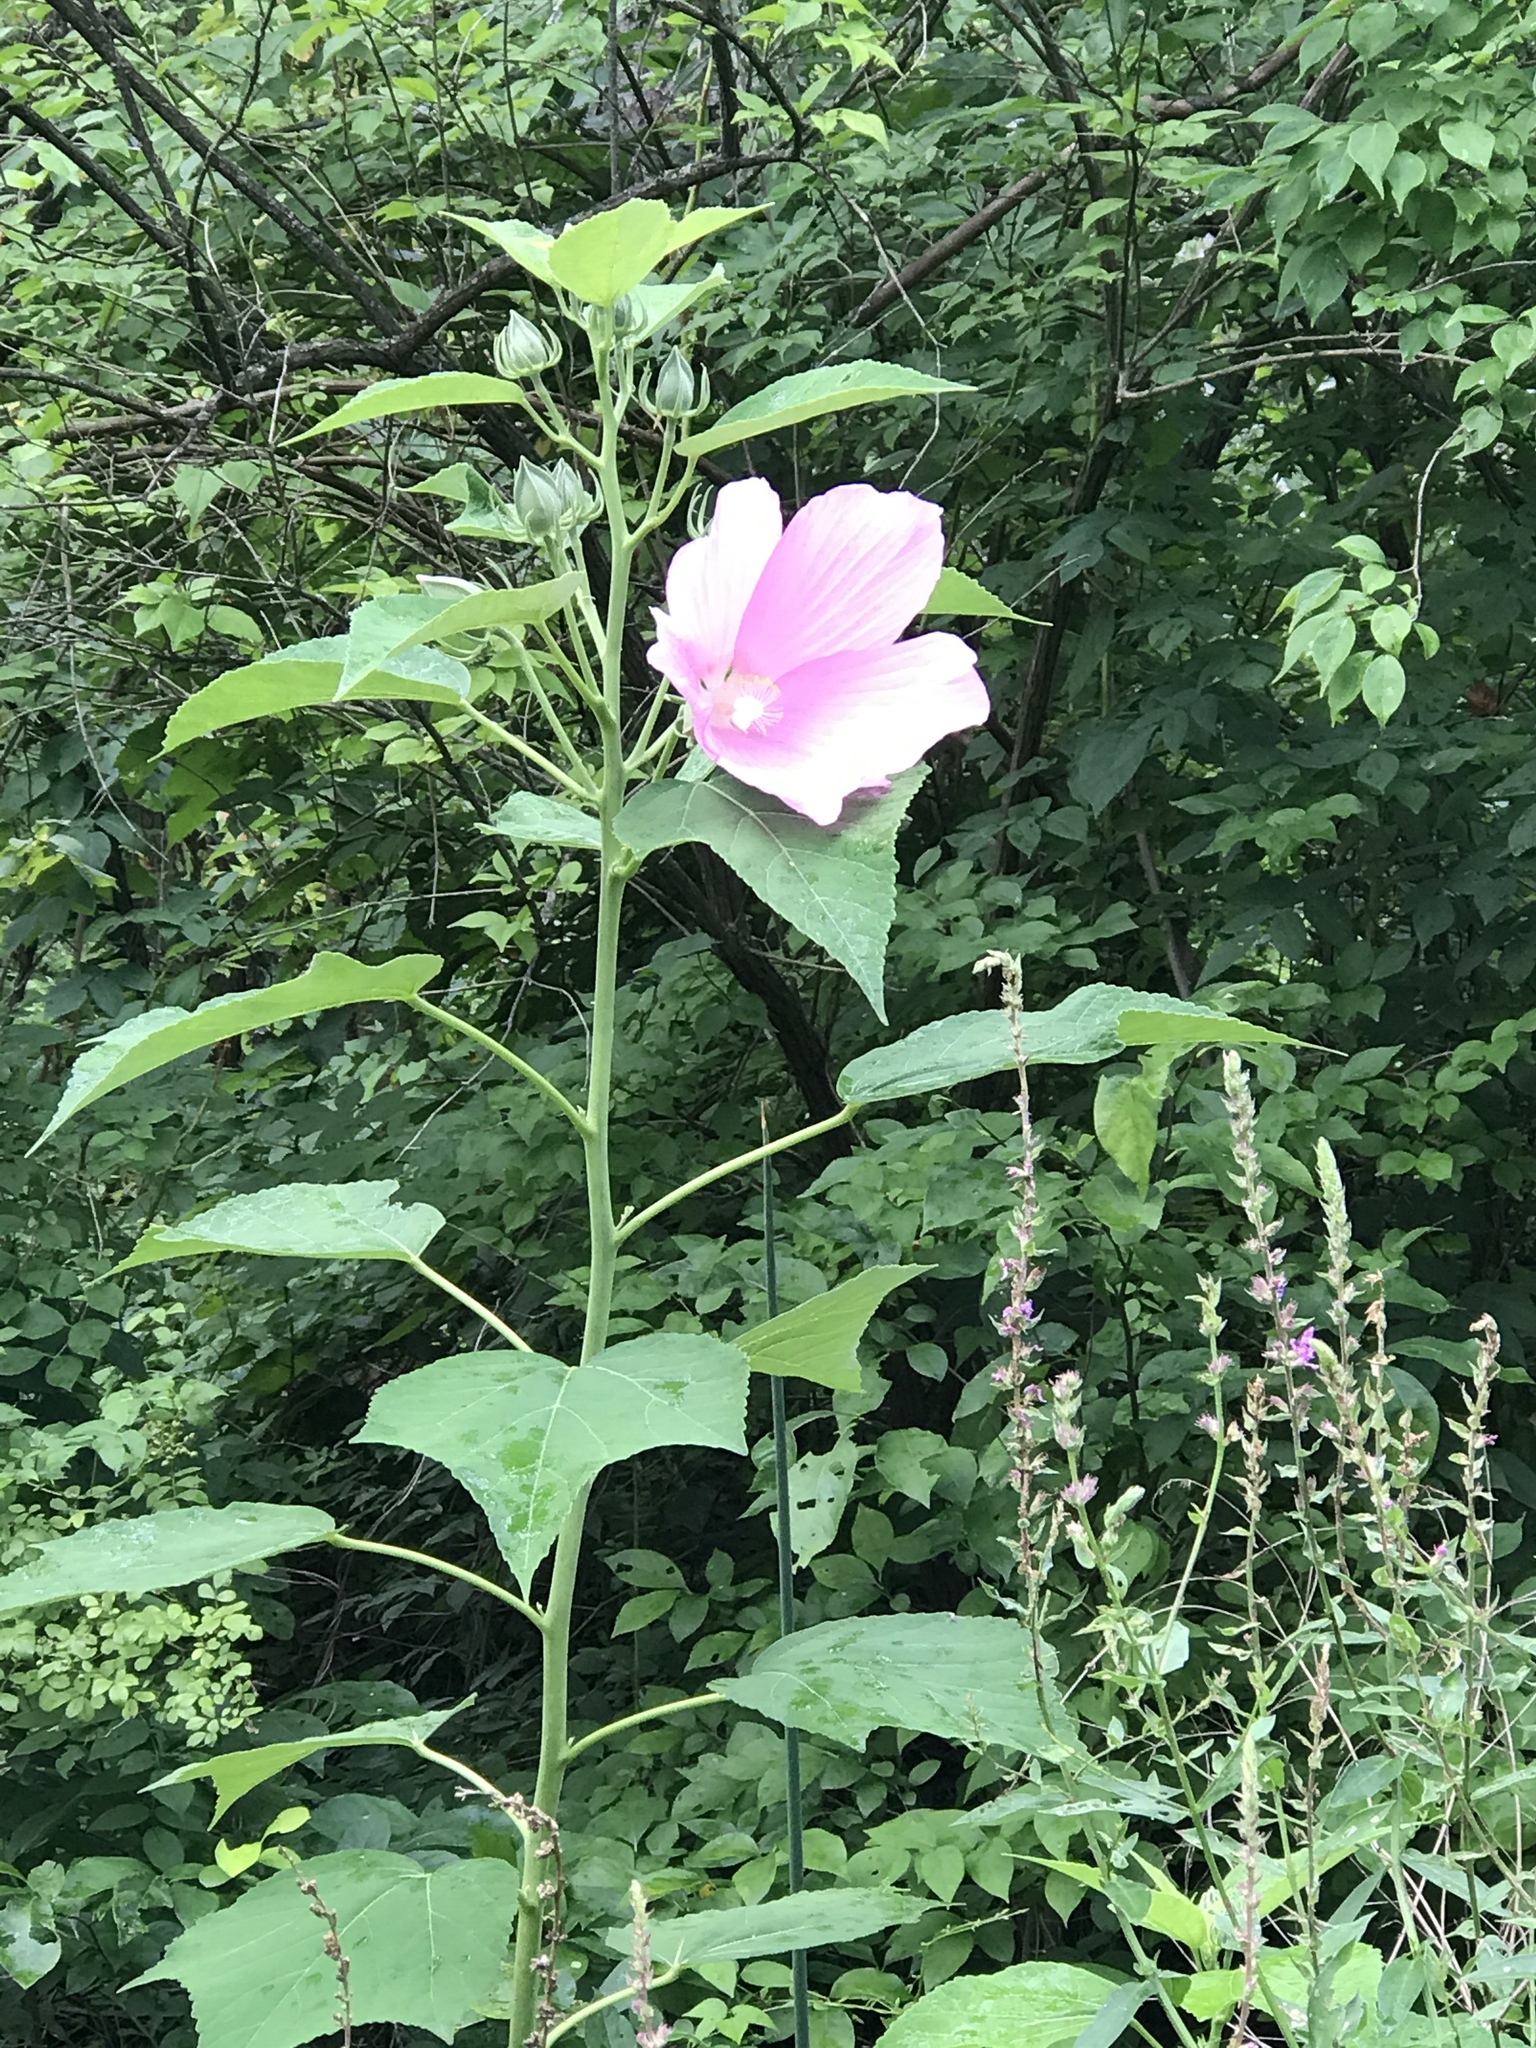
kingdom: Plantae
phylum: Tracheophyta
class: Magnoliopsida
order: Malvales
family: Malvaceae
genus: Hibiscus
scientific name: Hibiscus moscheutos
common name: Common rose-mallow
